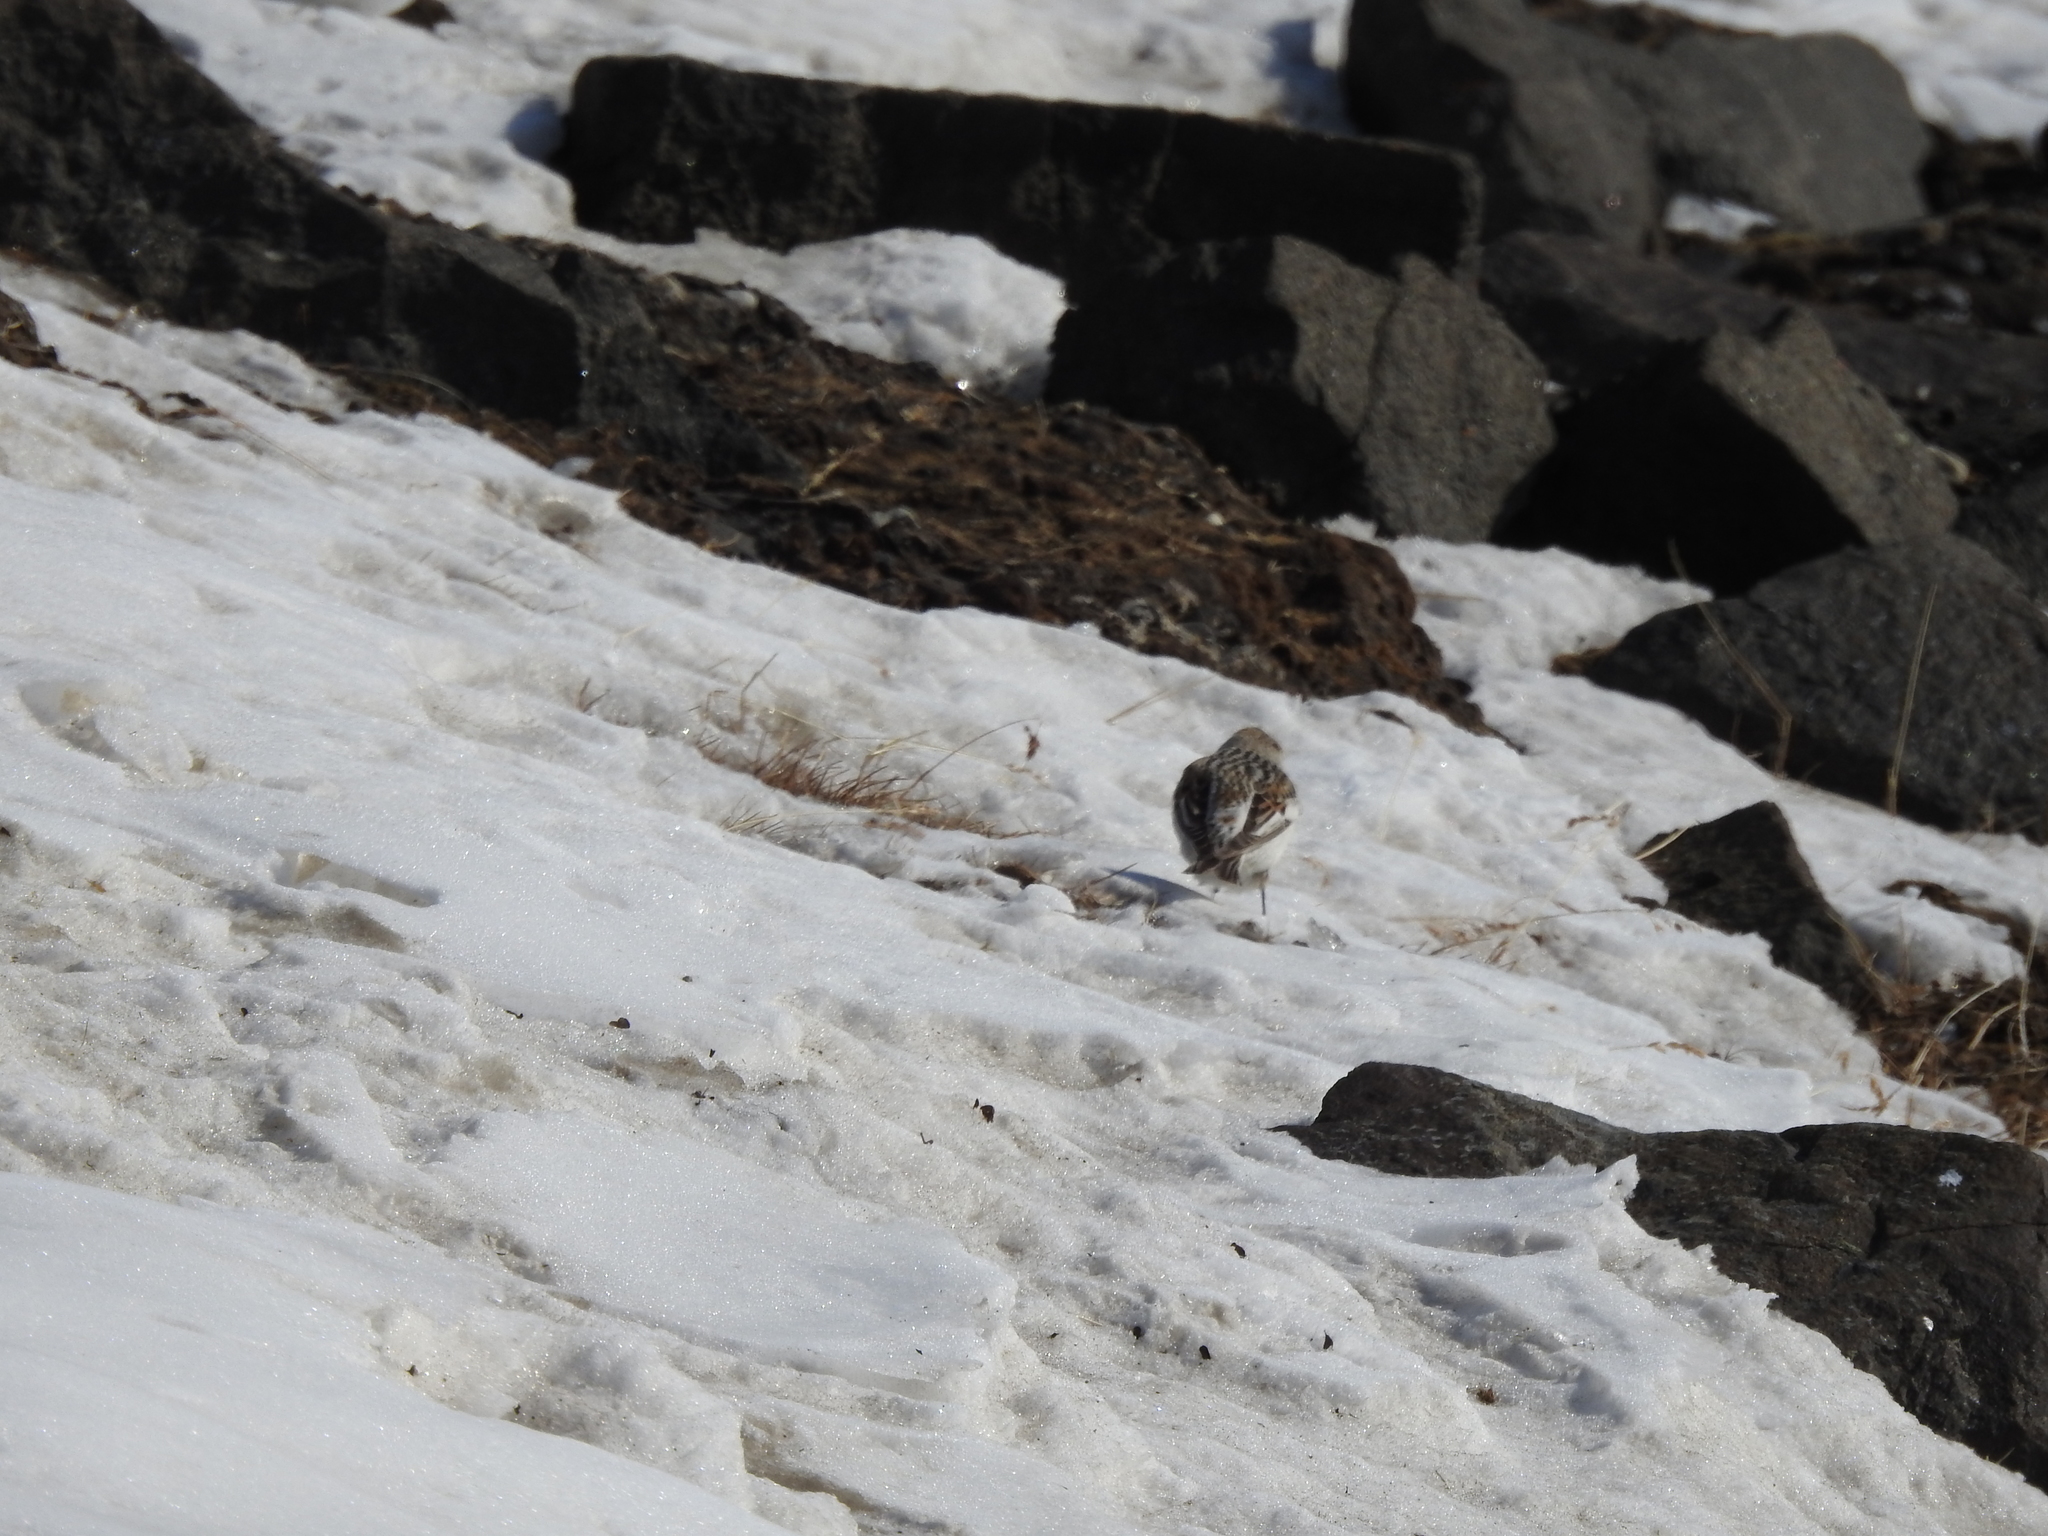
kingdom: Animalia
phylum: Chordata
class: Aves
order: Passeriformes
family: Calcariidae
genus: Plectrophenax
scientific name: Plectrophenax nivalis
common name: Snow bunting
